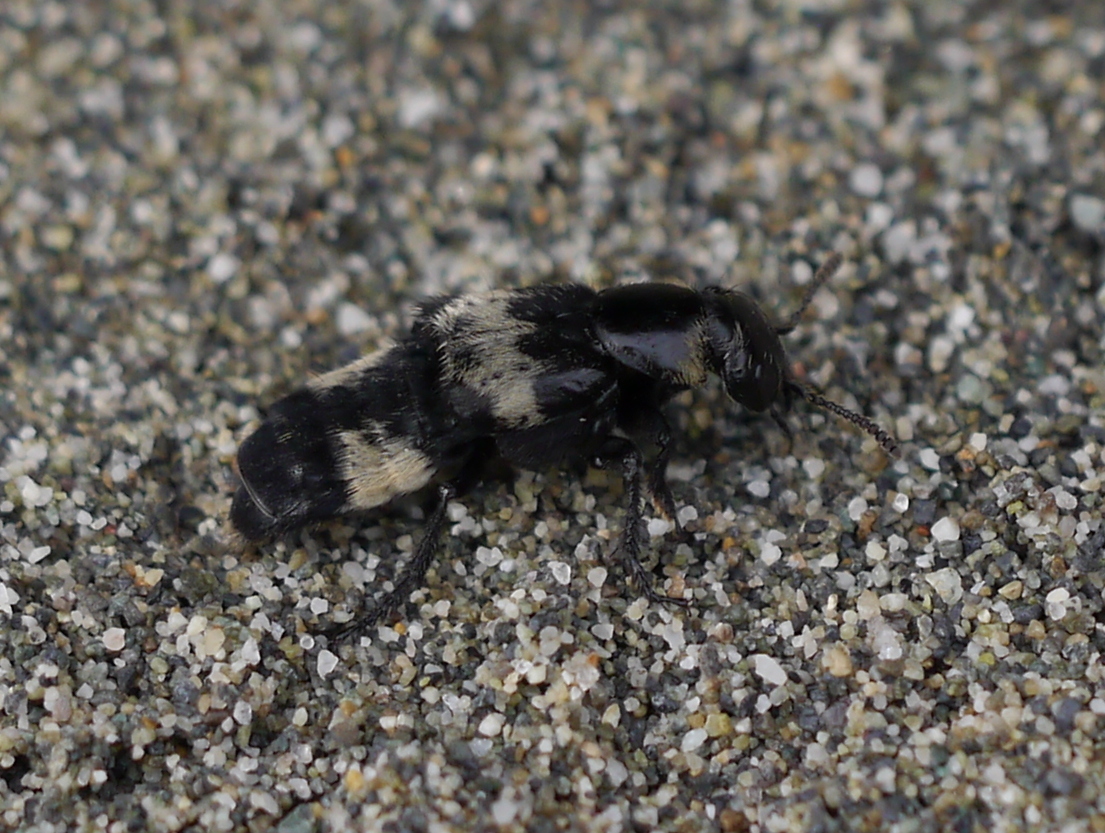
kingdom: Animalia
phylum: Arthropoda
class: Insecta
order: Coleoptera
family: Staphylinidae
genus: Creophilus
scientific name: Creophilus maxillosus
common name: Hairy rove beetle
